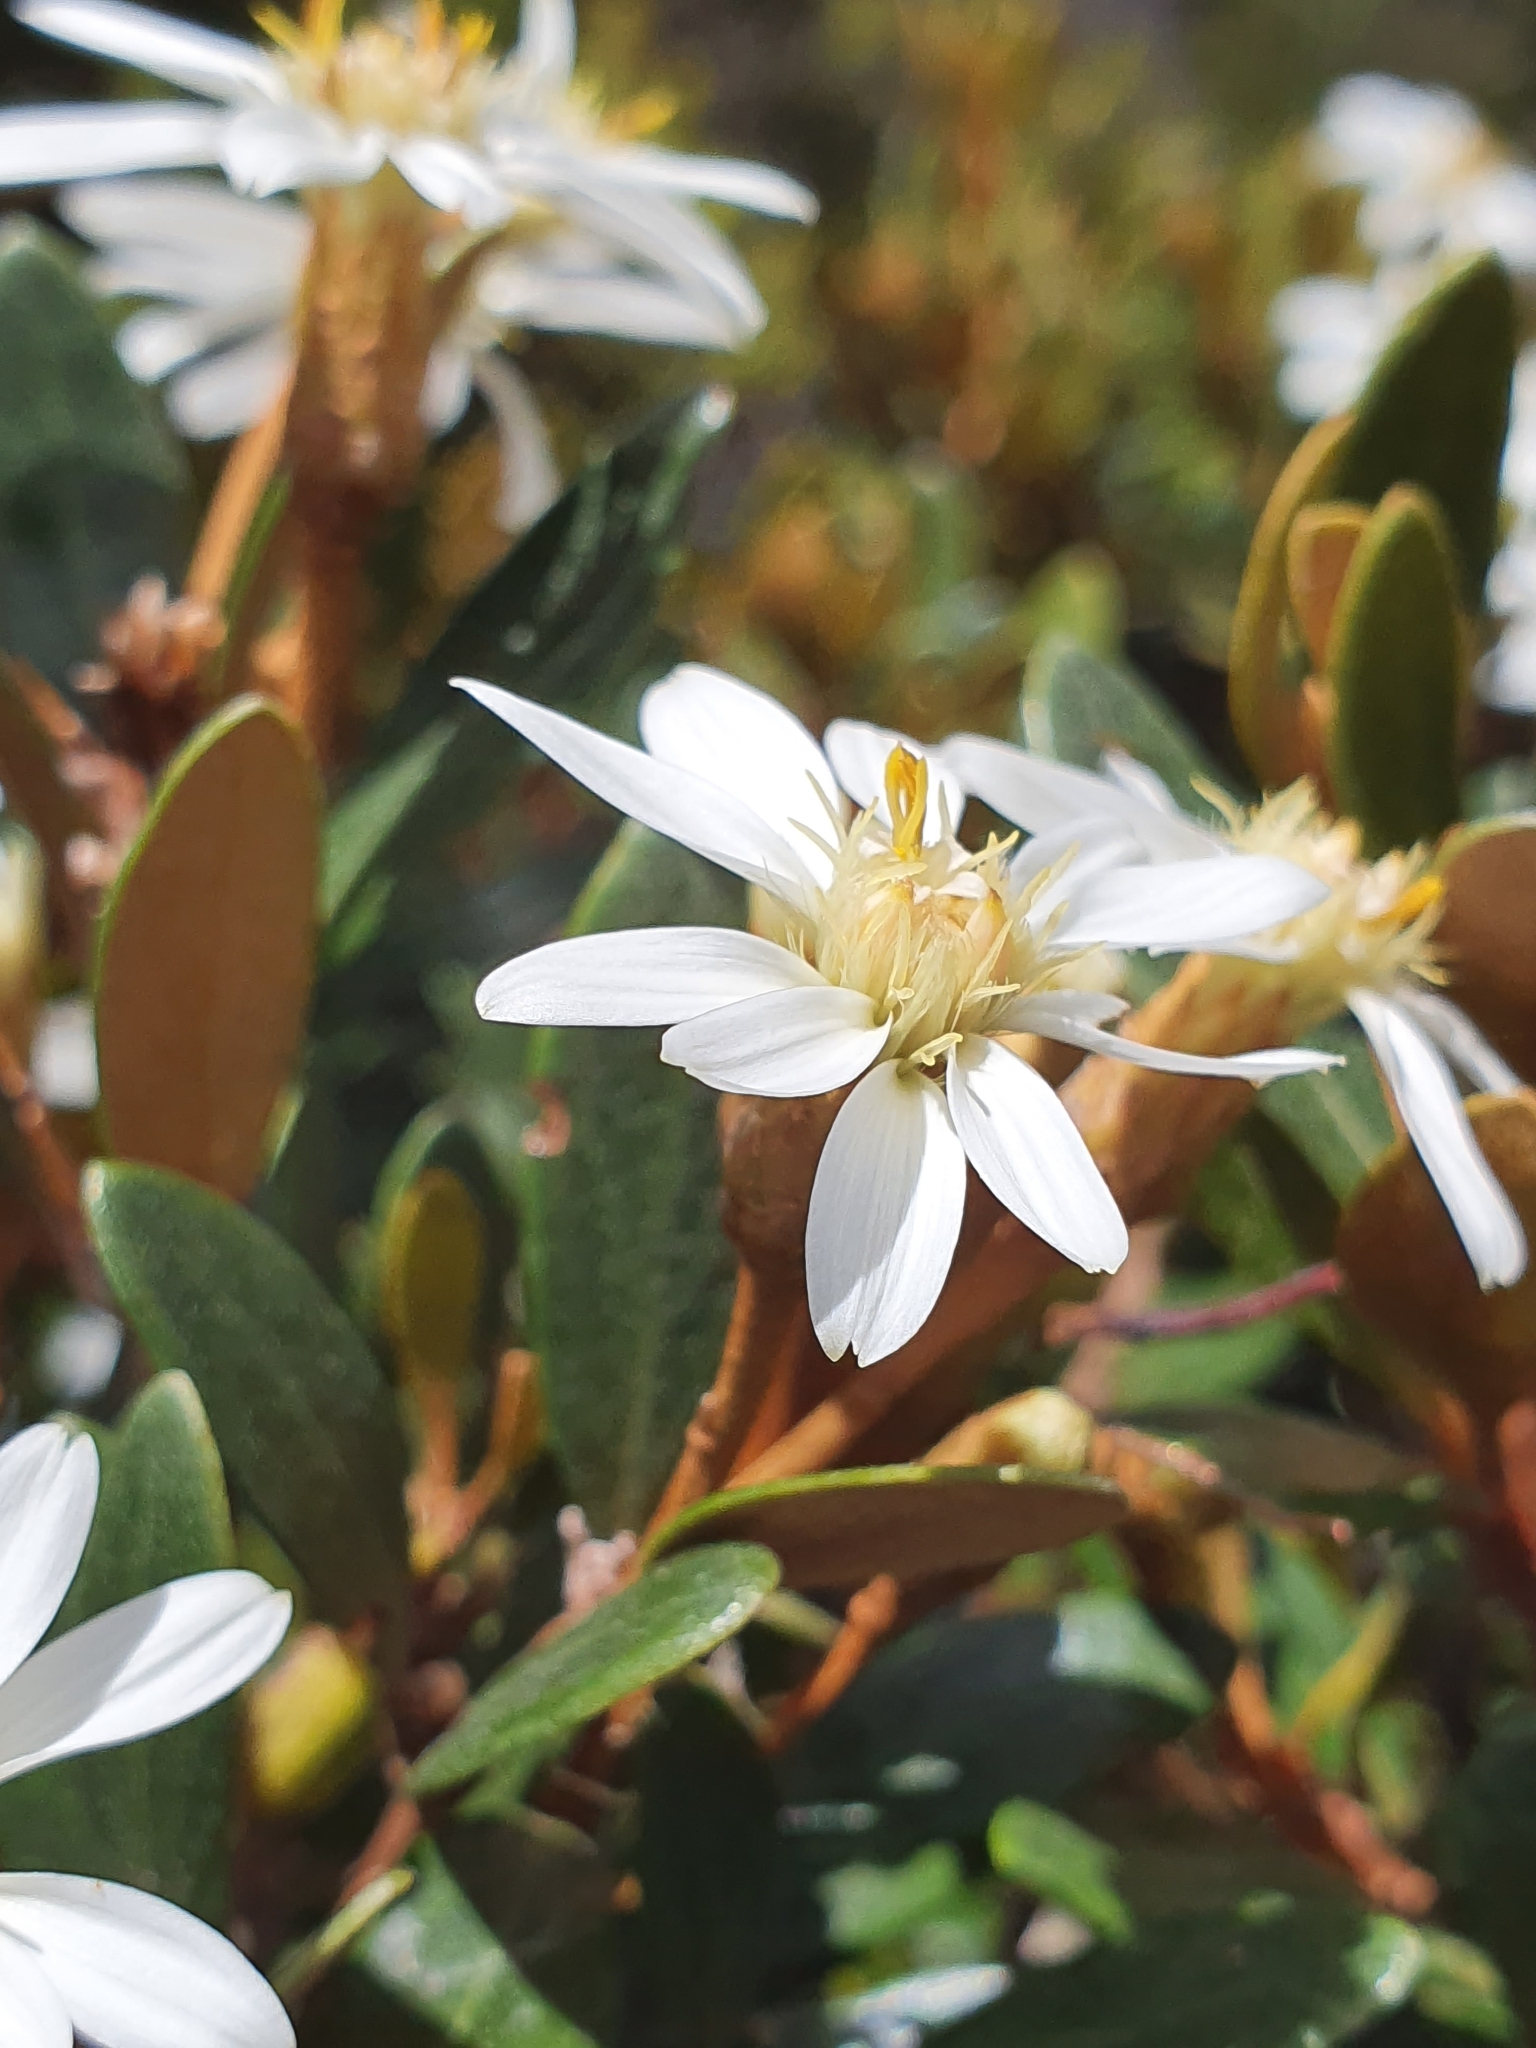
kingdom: Plantae
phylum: Tracheophyta
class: Magnoliopsida
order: Asterales
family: Asteraceae
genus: Olearia
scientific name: Olearia tasmanica
